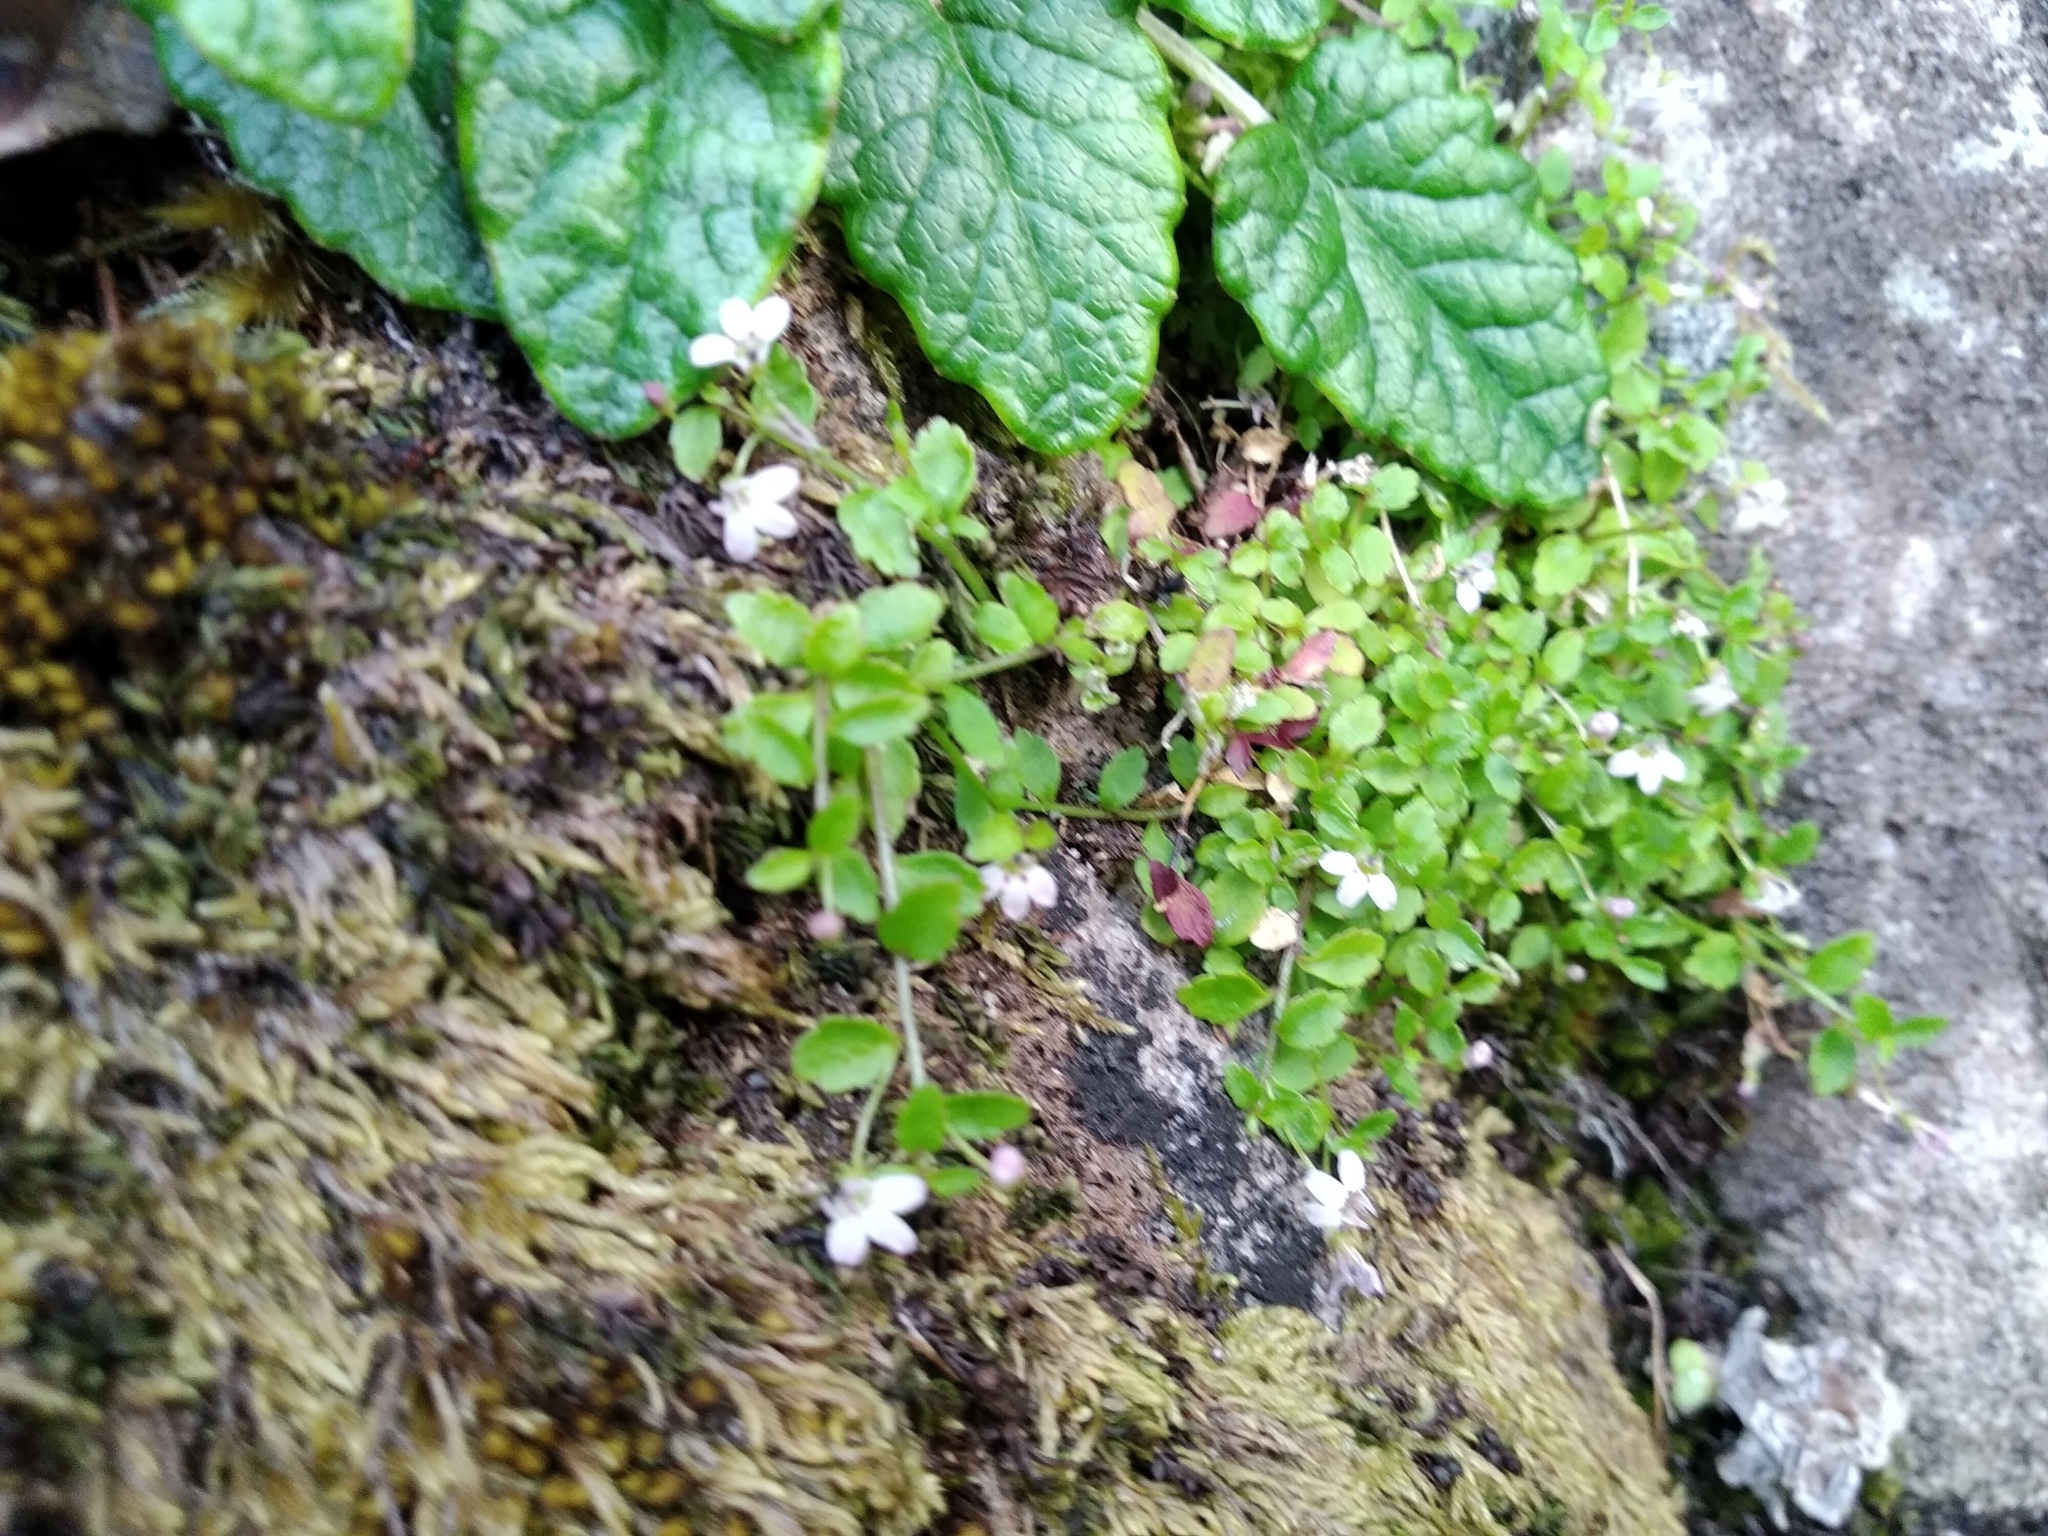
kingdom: Plantae
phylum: Tracheophyta
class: Magnoliopsida
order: Asterales
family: Campanulaceae
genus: Unigenes
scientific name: Unigenes humifusa
